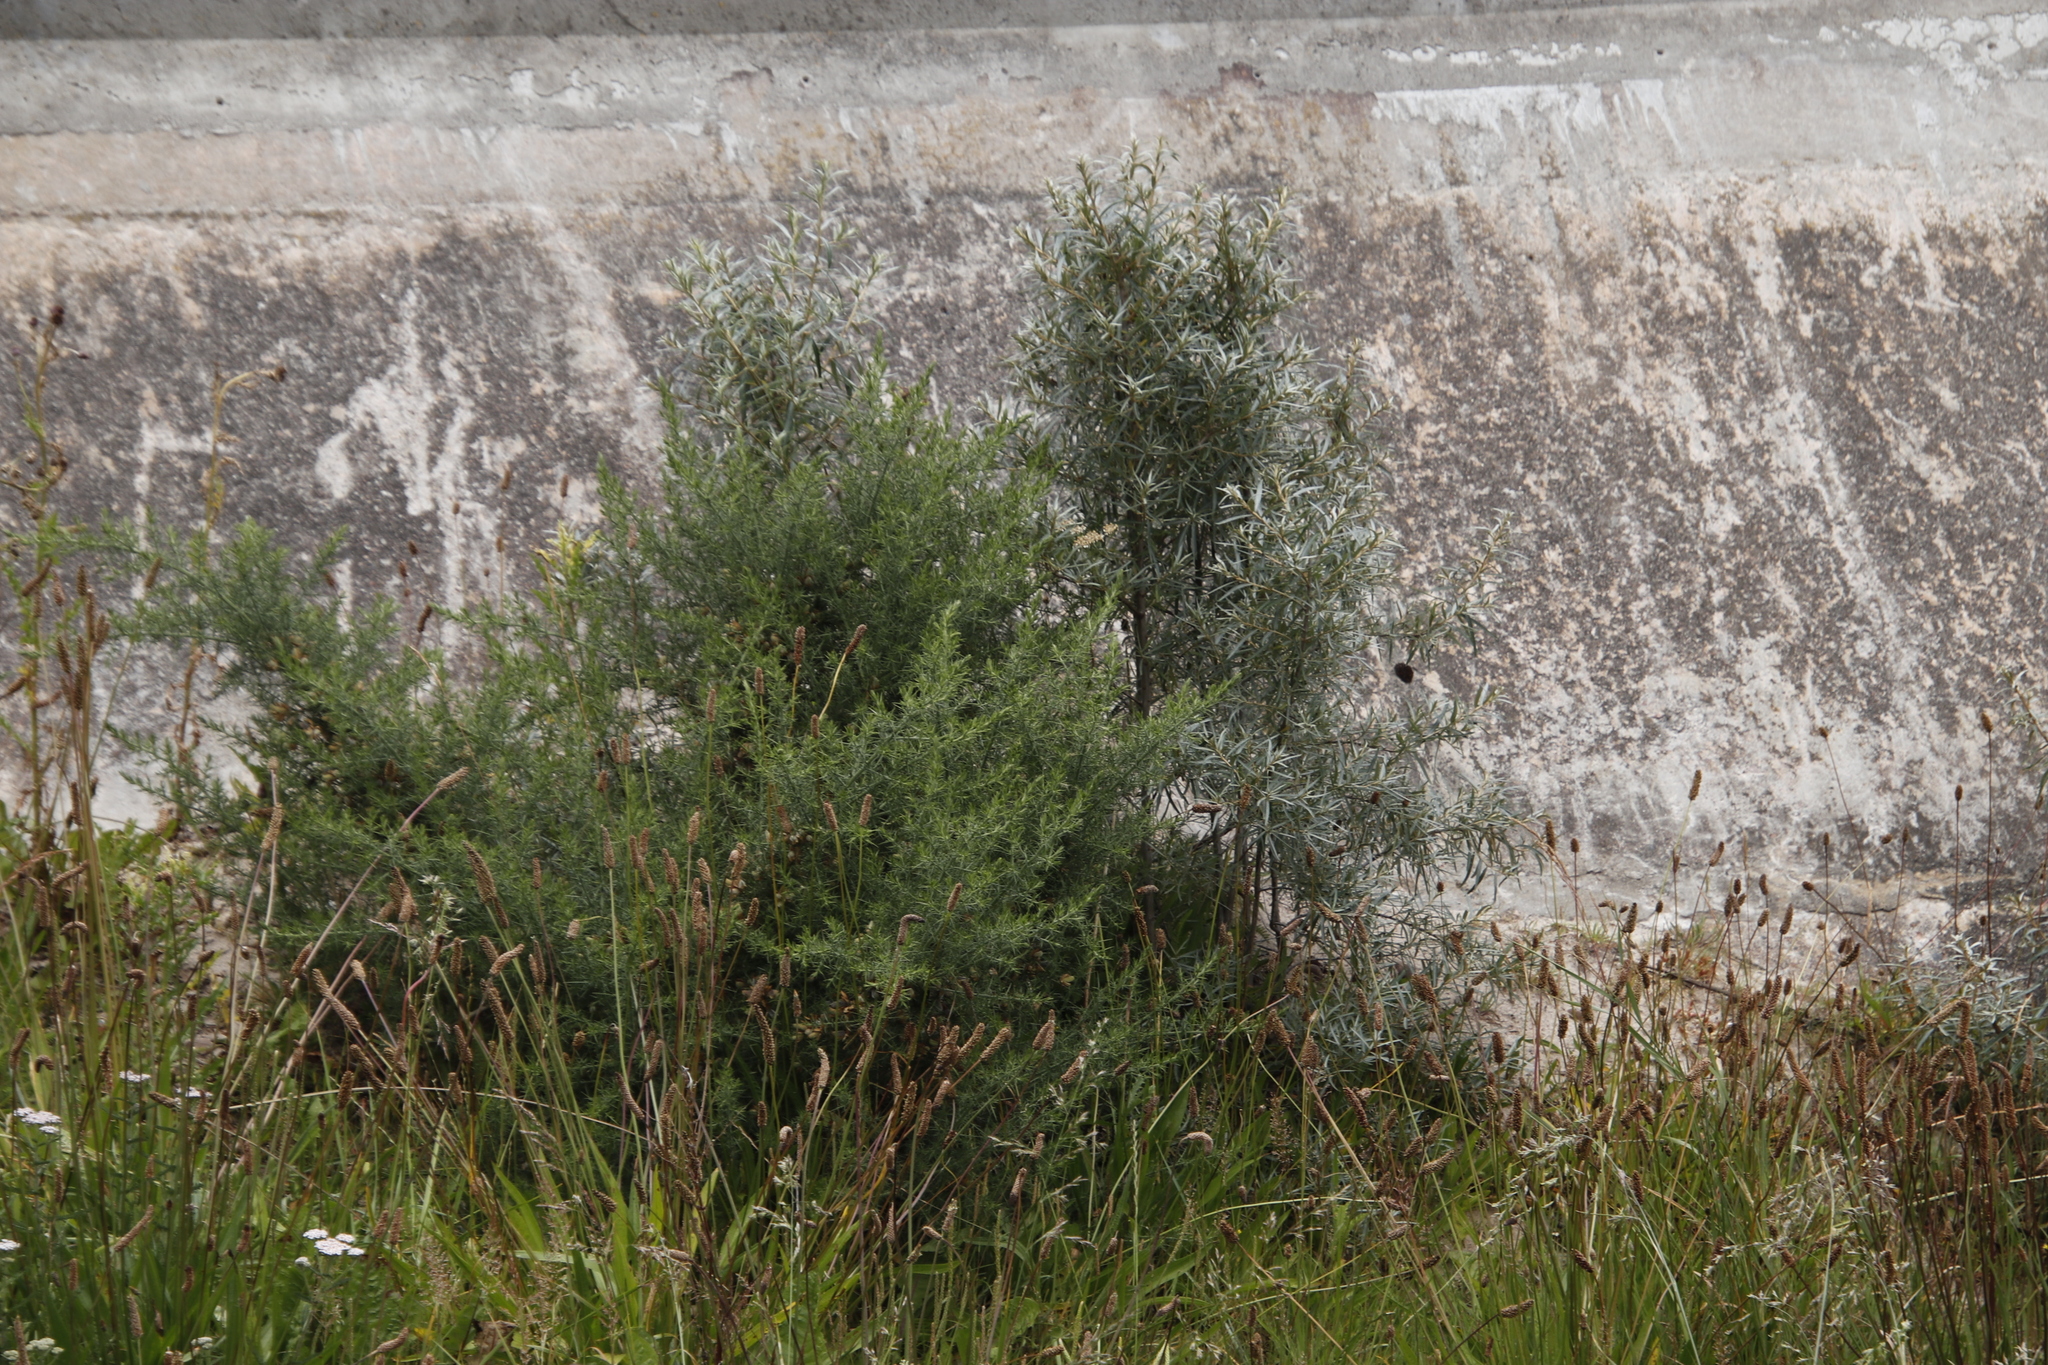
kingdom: Plantae
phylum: Tracheophyta
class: Magnoliopsida
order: Fabales
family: Fabaceae
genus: Ulex
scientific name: Ulex europaeus
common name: Common gorse
